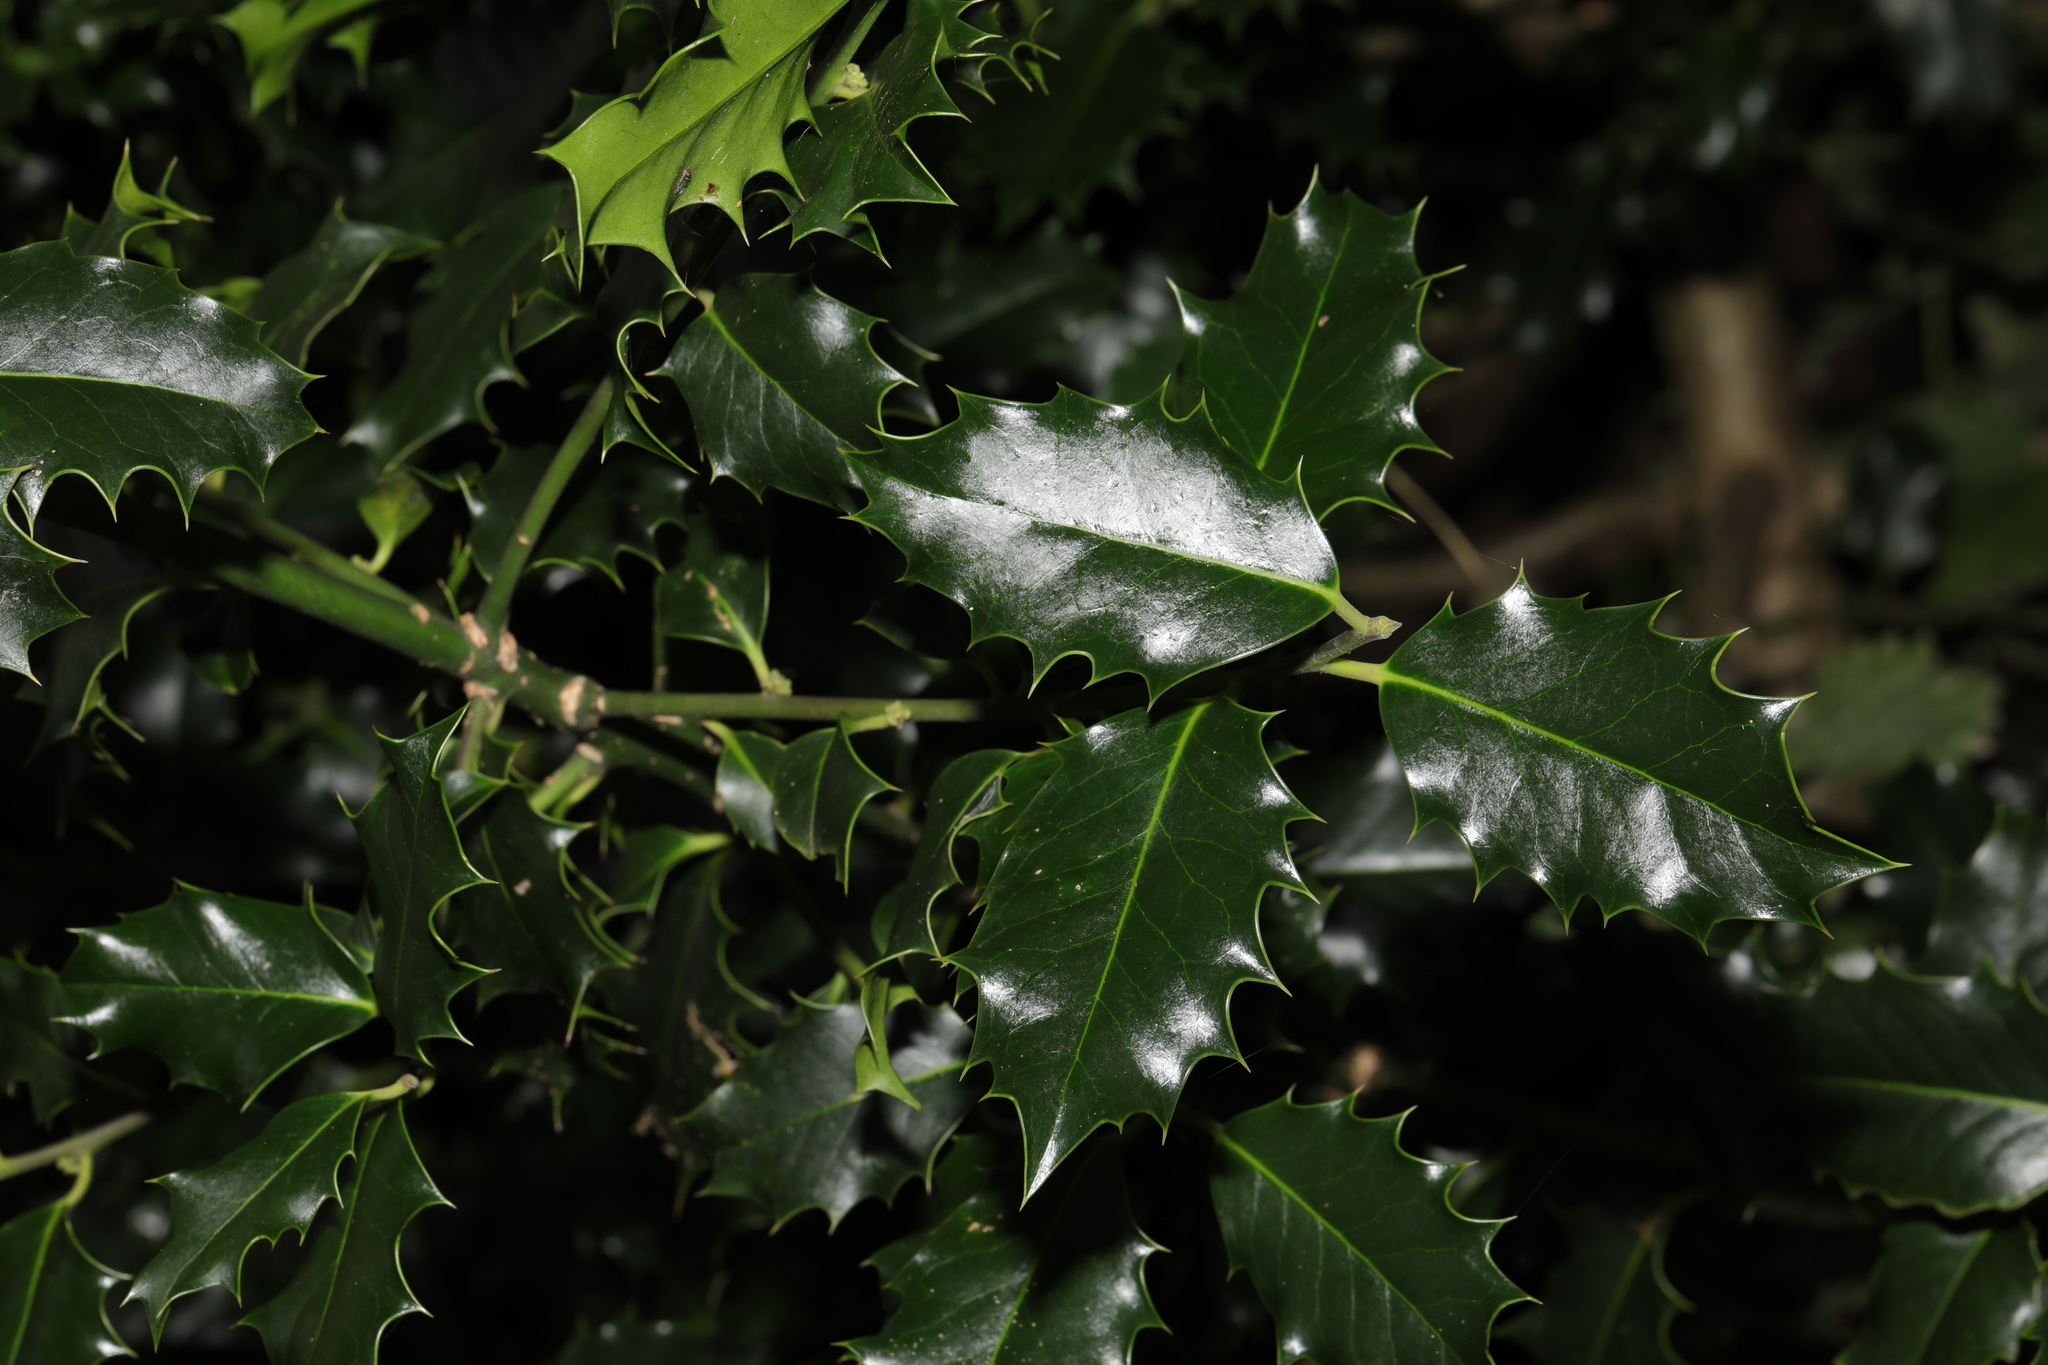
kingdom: Plantae
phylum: Tracheophyta
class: Magnoliopsida
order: Aquifoliales
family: Aquifoliaceae
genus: Ilex
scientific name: Ilex aquifolium
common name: English holly
